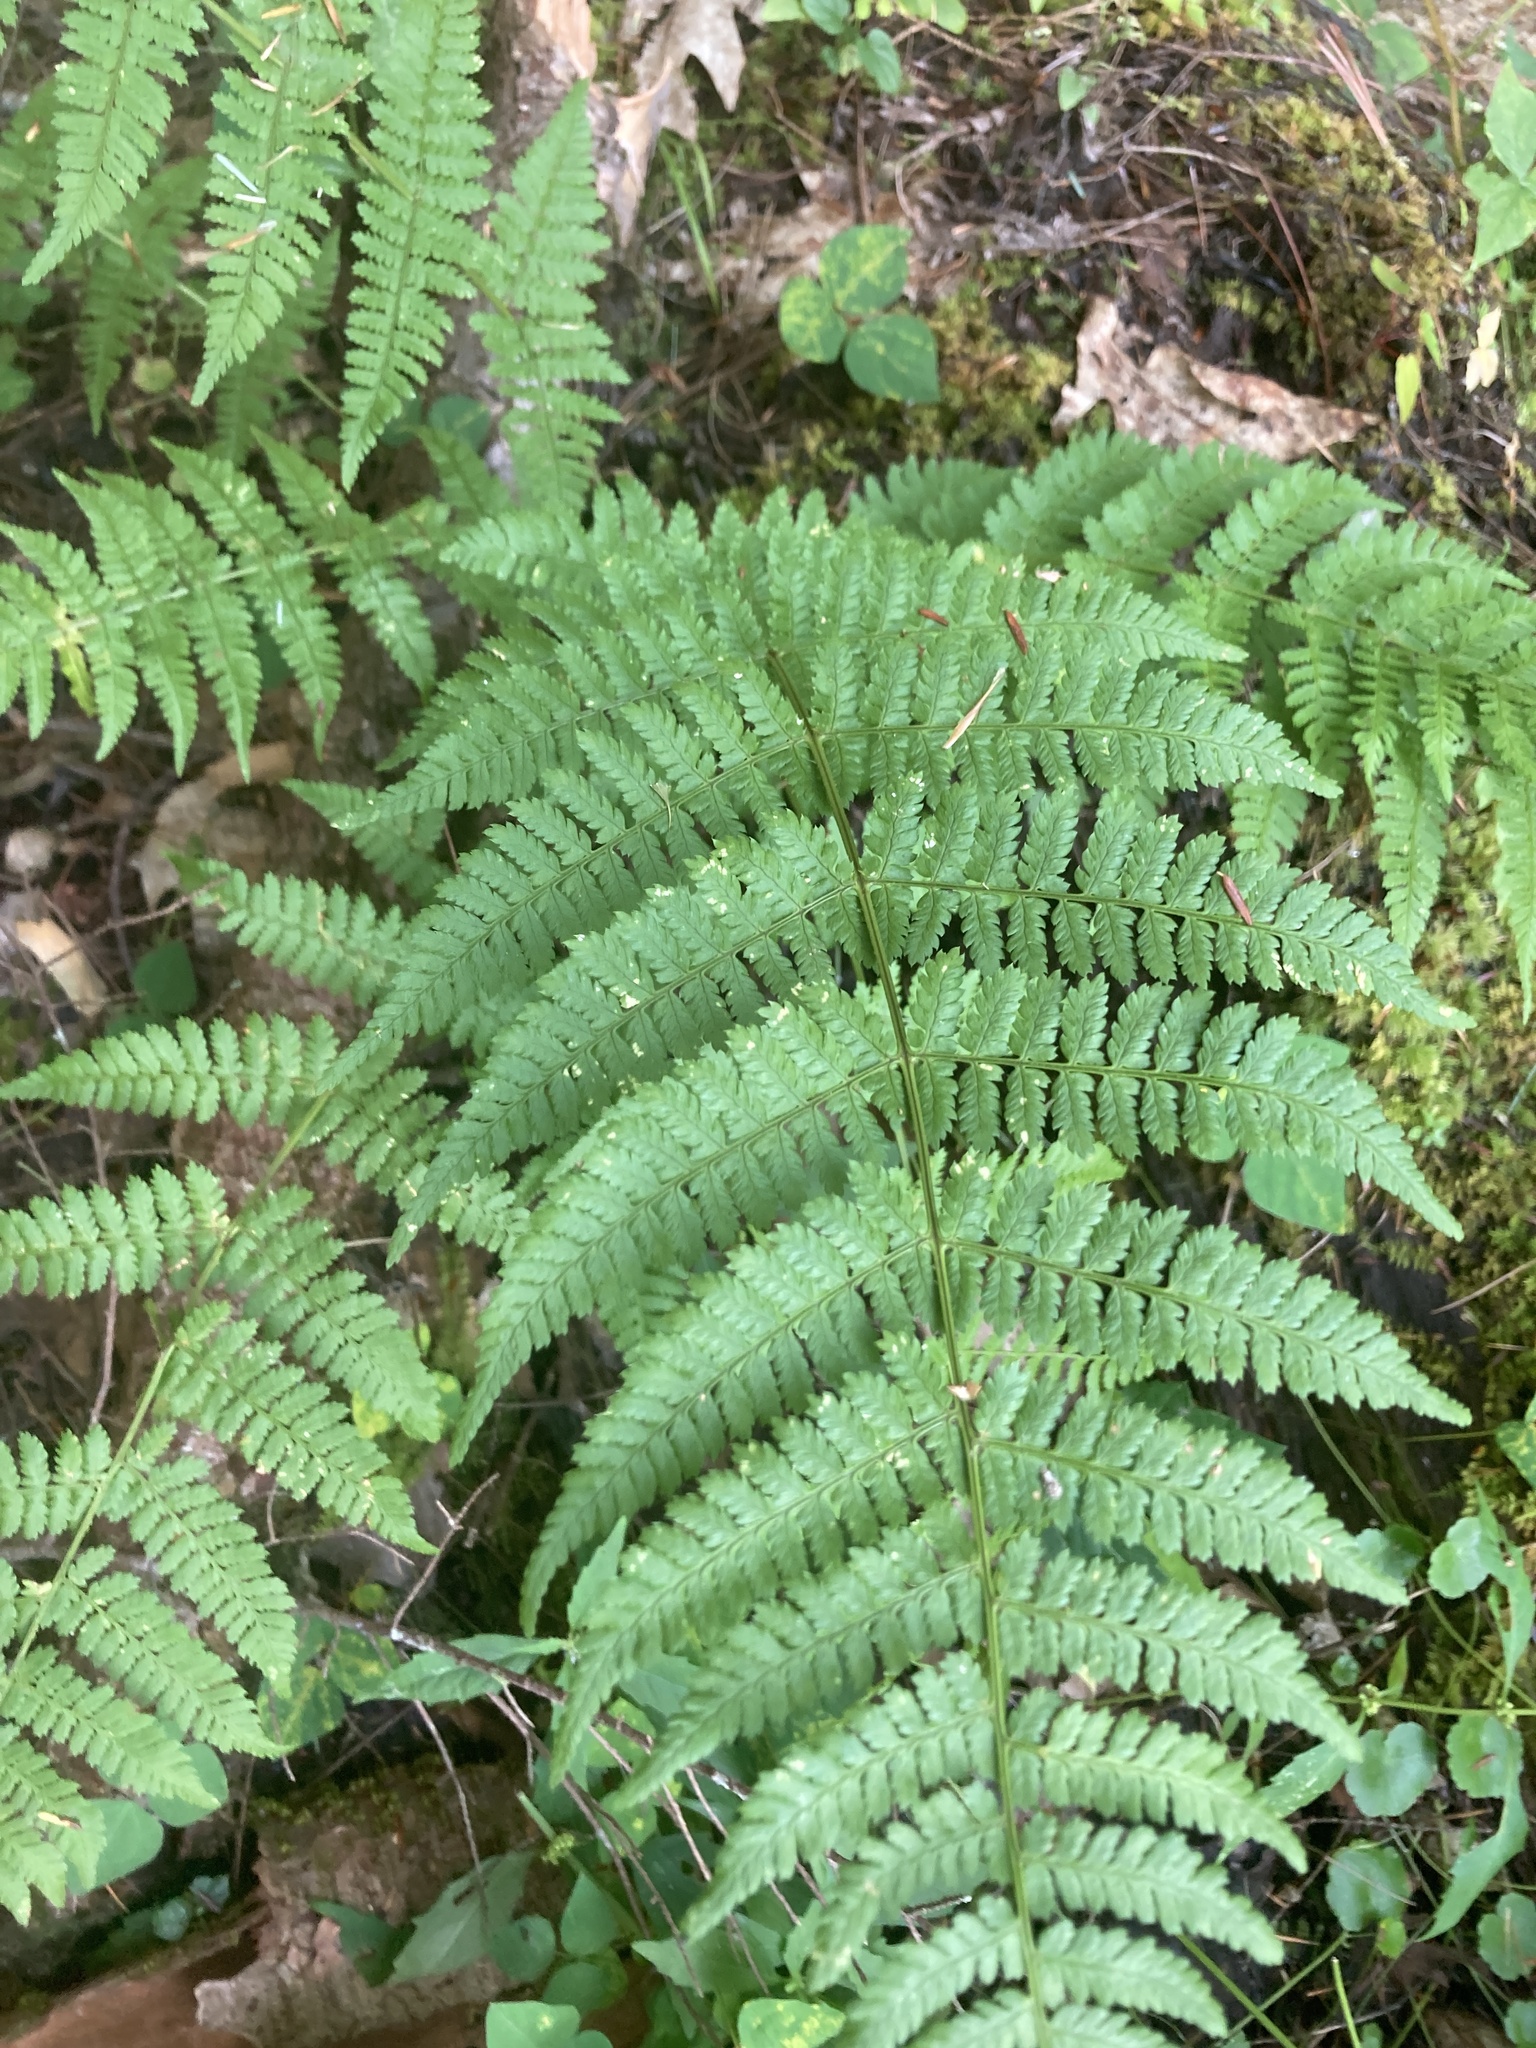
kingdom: Plantae
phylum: Tracheophyta
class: Polypodiopsida
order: Polypodiales
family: Dryopteridaceae
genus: Dryopteris
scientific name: Dryopteris intermedia
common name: Evergreen wood fern
